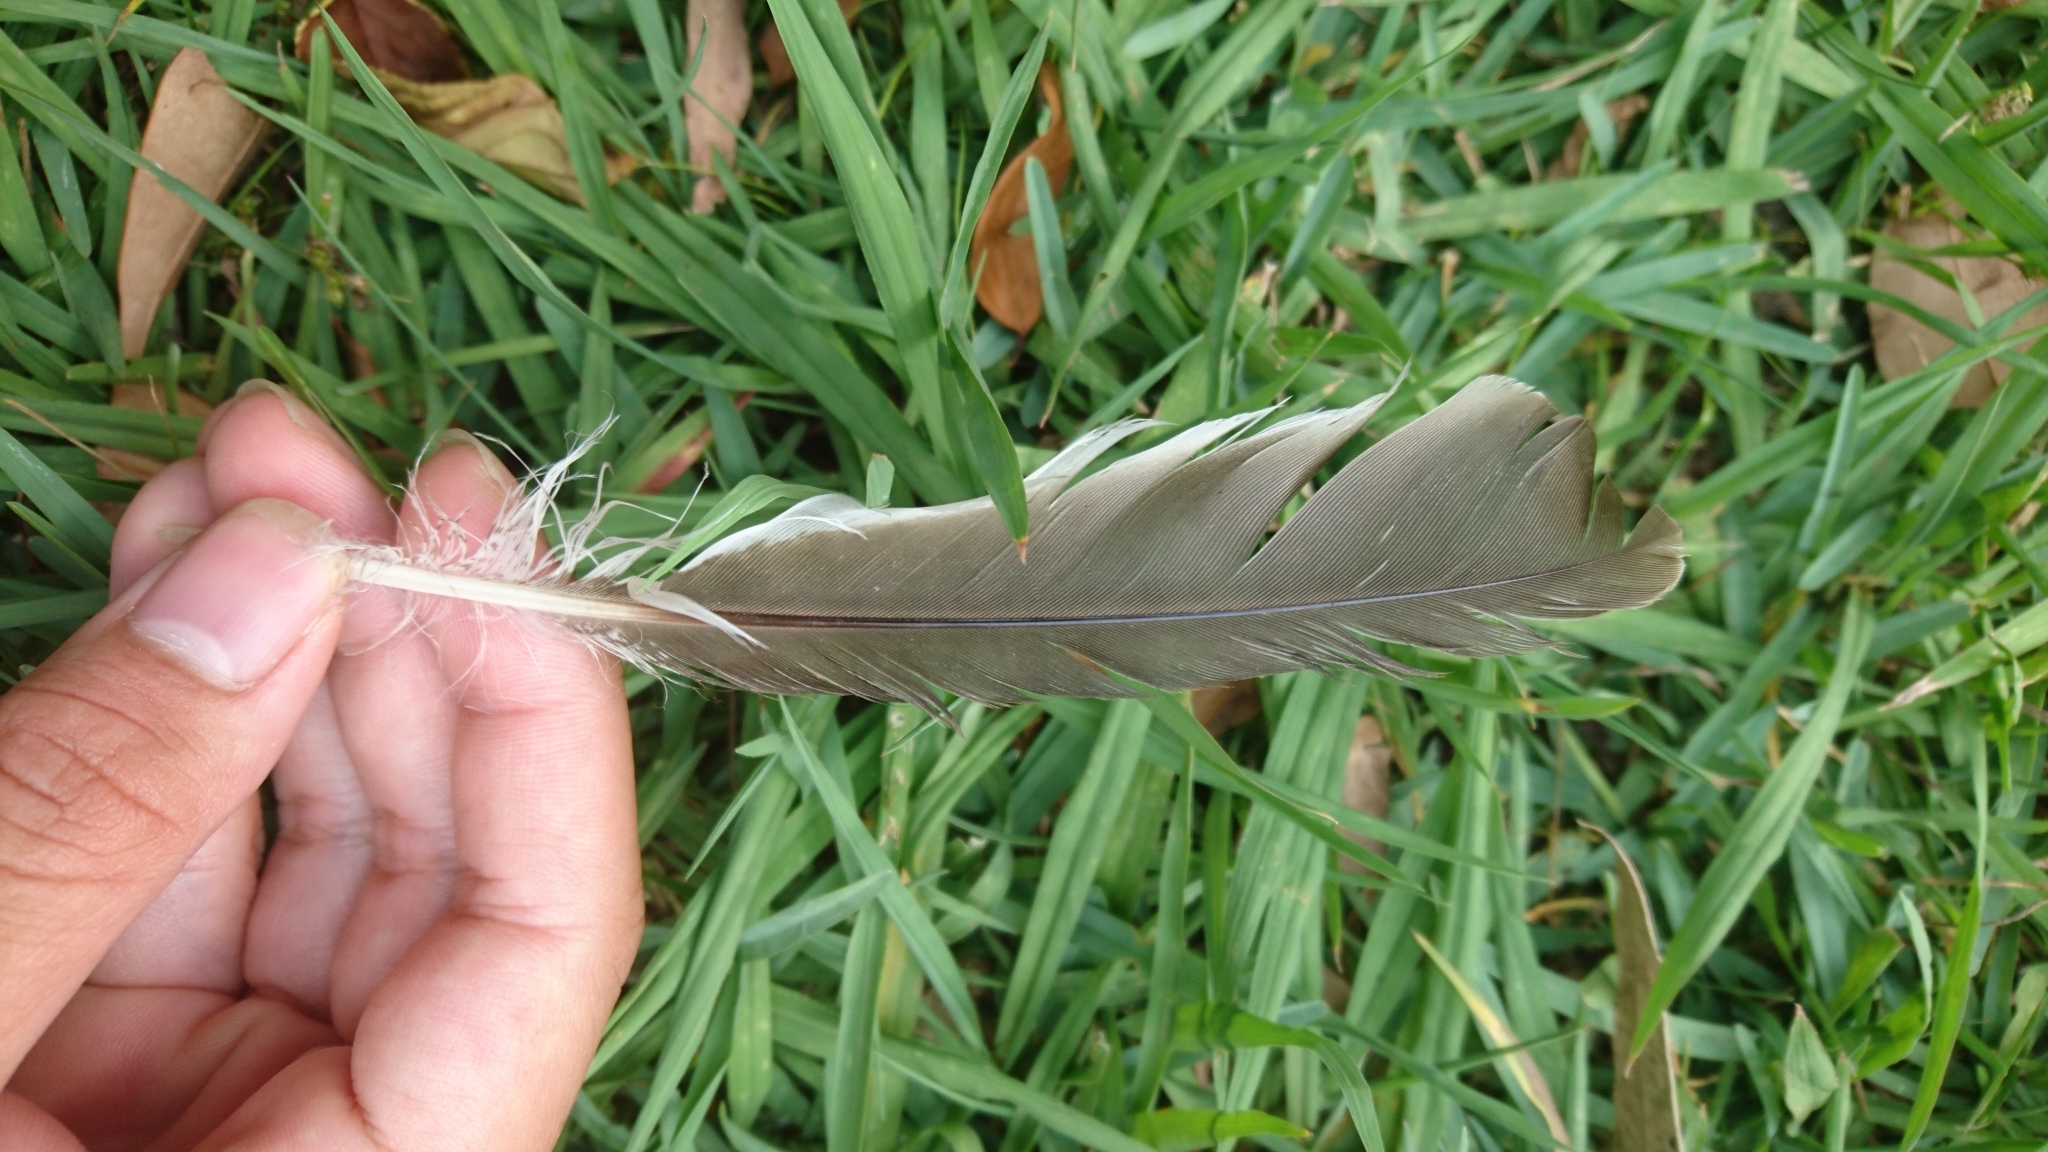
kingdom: Animalia
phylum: Chordata
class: Aves
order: Coraciiformes
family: Alcedinidae
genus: Dacelo
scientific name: Dacelo novaeguineae
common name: Laughing kookaburra
